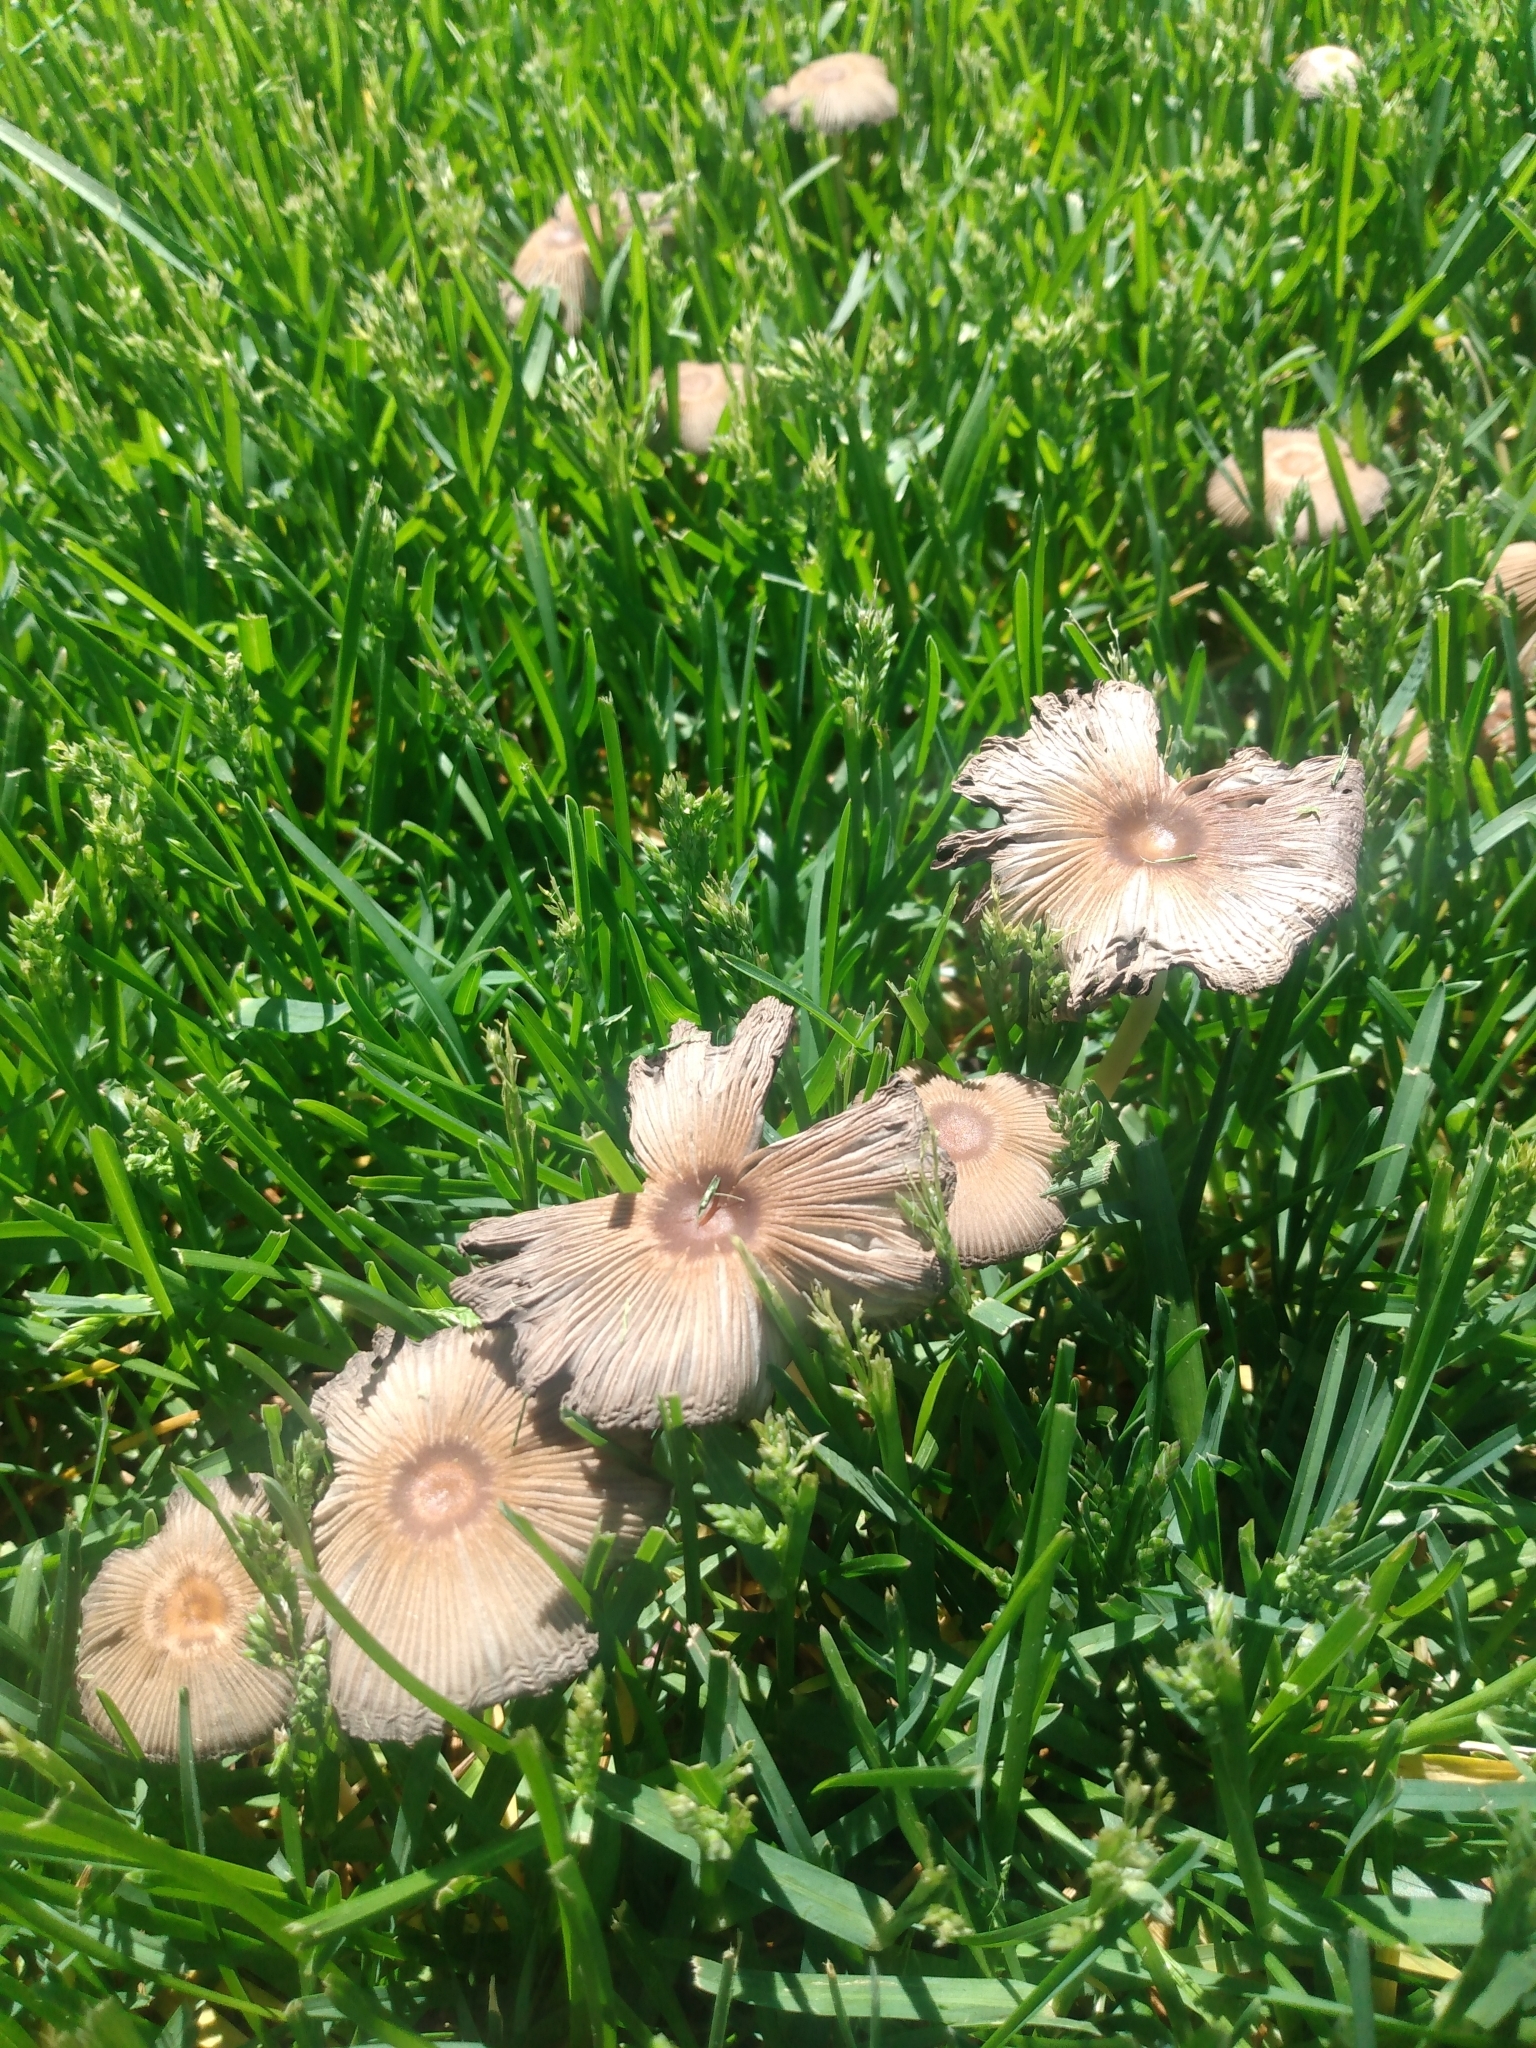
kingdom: Fungi
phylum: Basidiomycota
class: Agaricomycetes
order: Agaricales
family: Psathyrellaceae
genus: Parasola
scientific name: Parasola auricoma
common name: Goldenhaired inkcap
